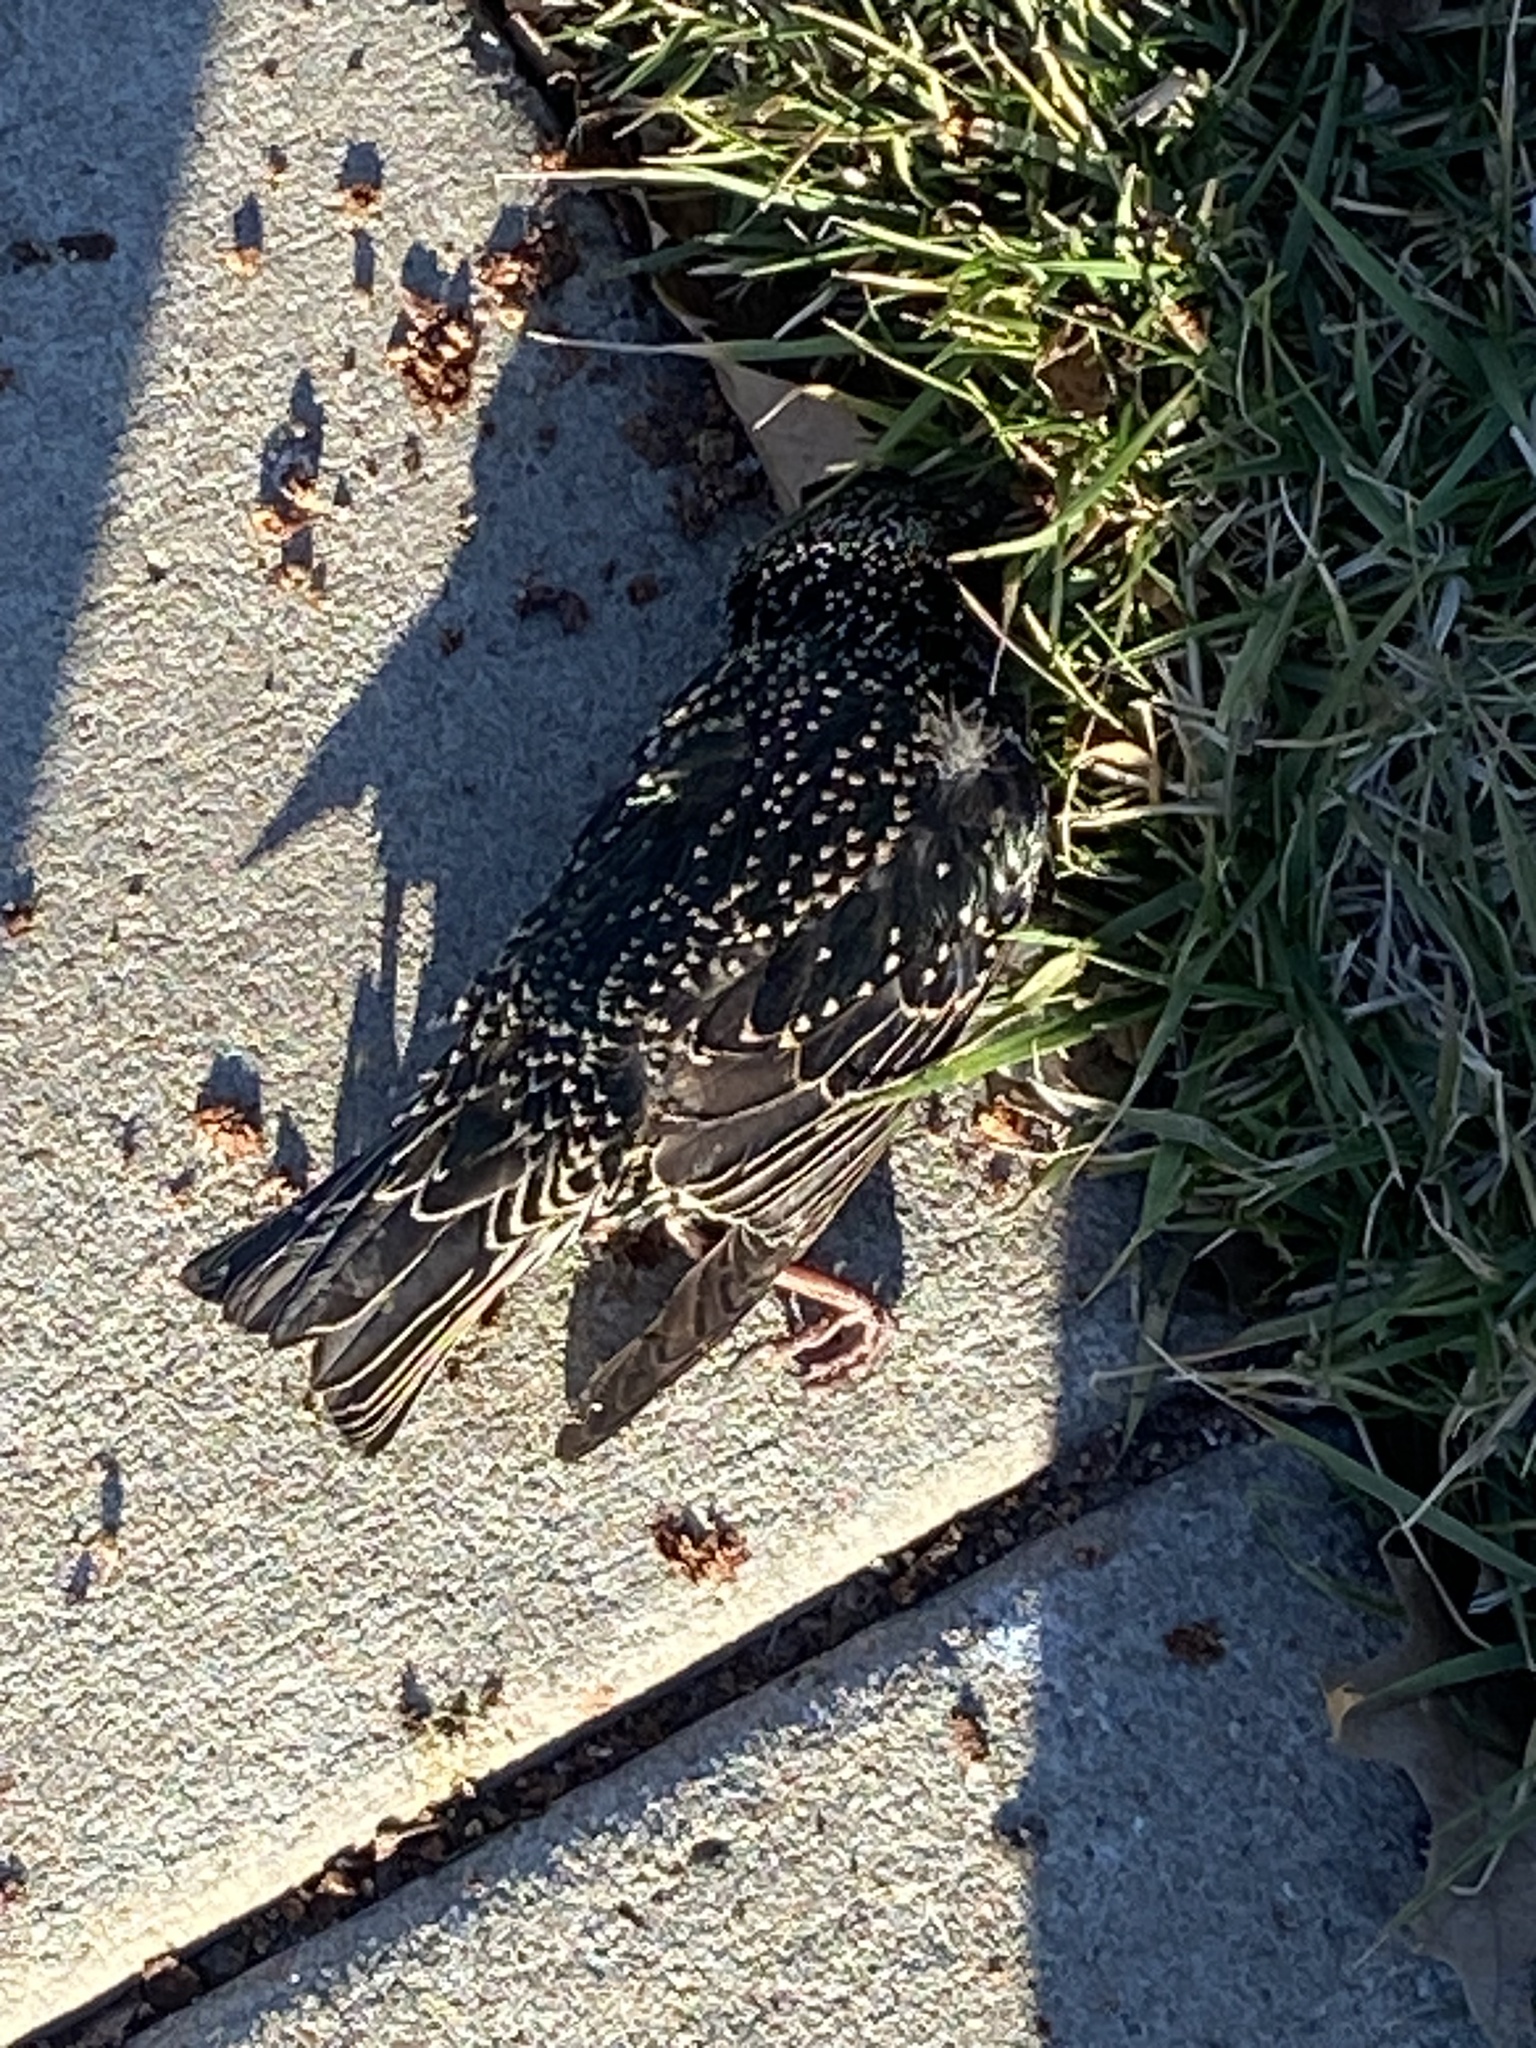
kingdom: Animalia
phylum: Chordata
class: Aves
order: Passeriformes
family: Sturnidae
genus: Sturnus
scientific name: Sturnus vulgaris
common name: Common starling
